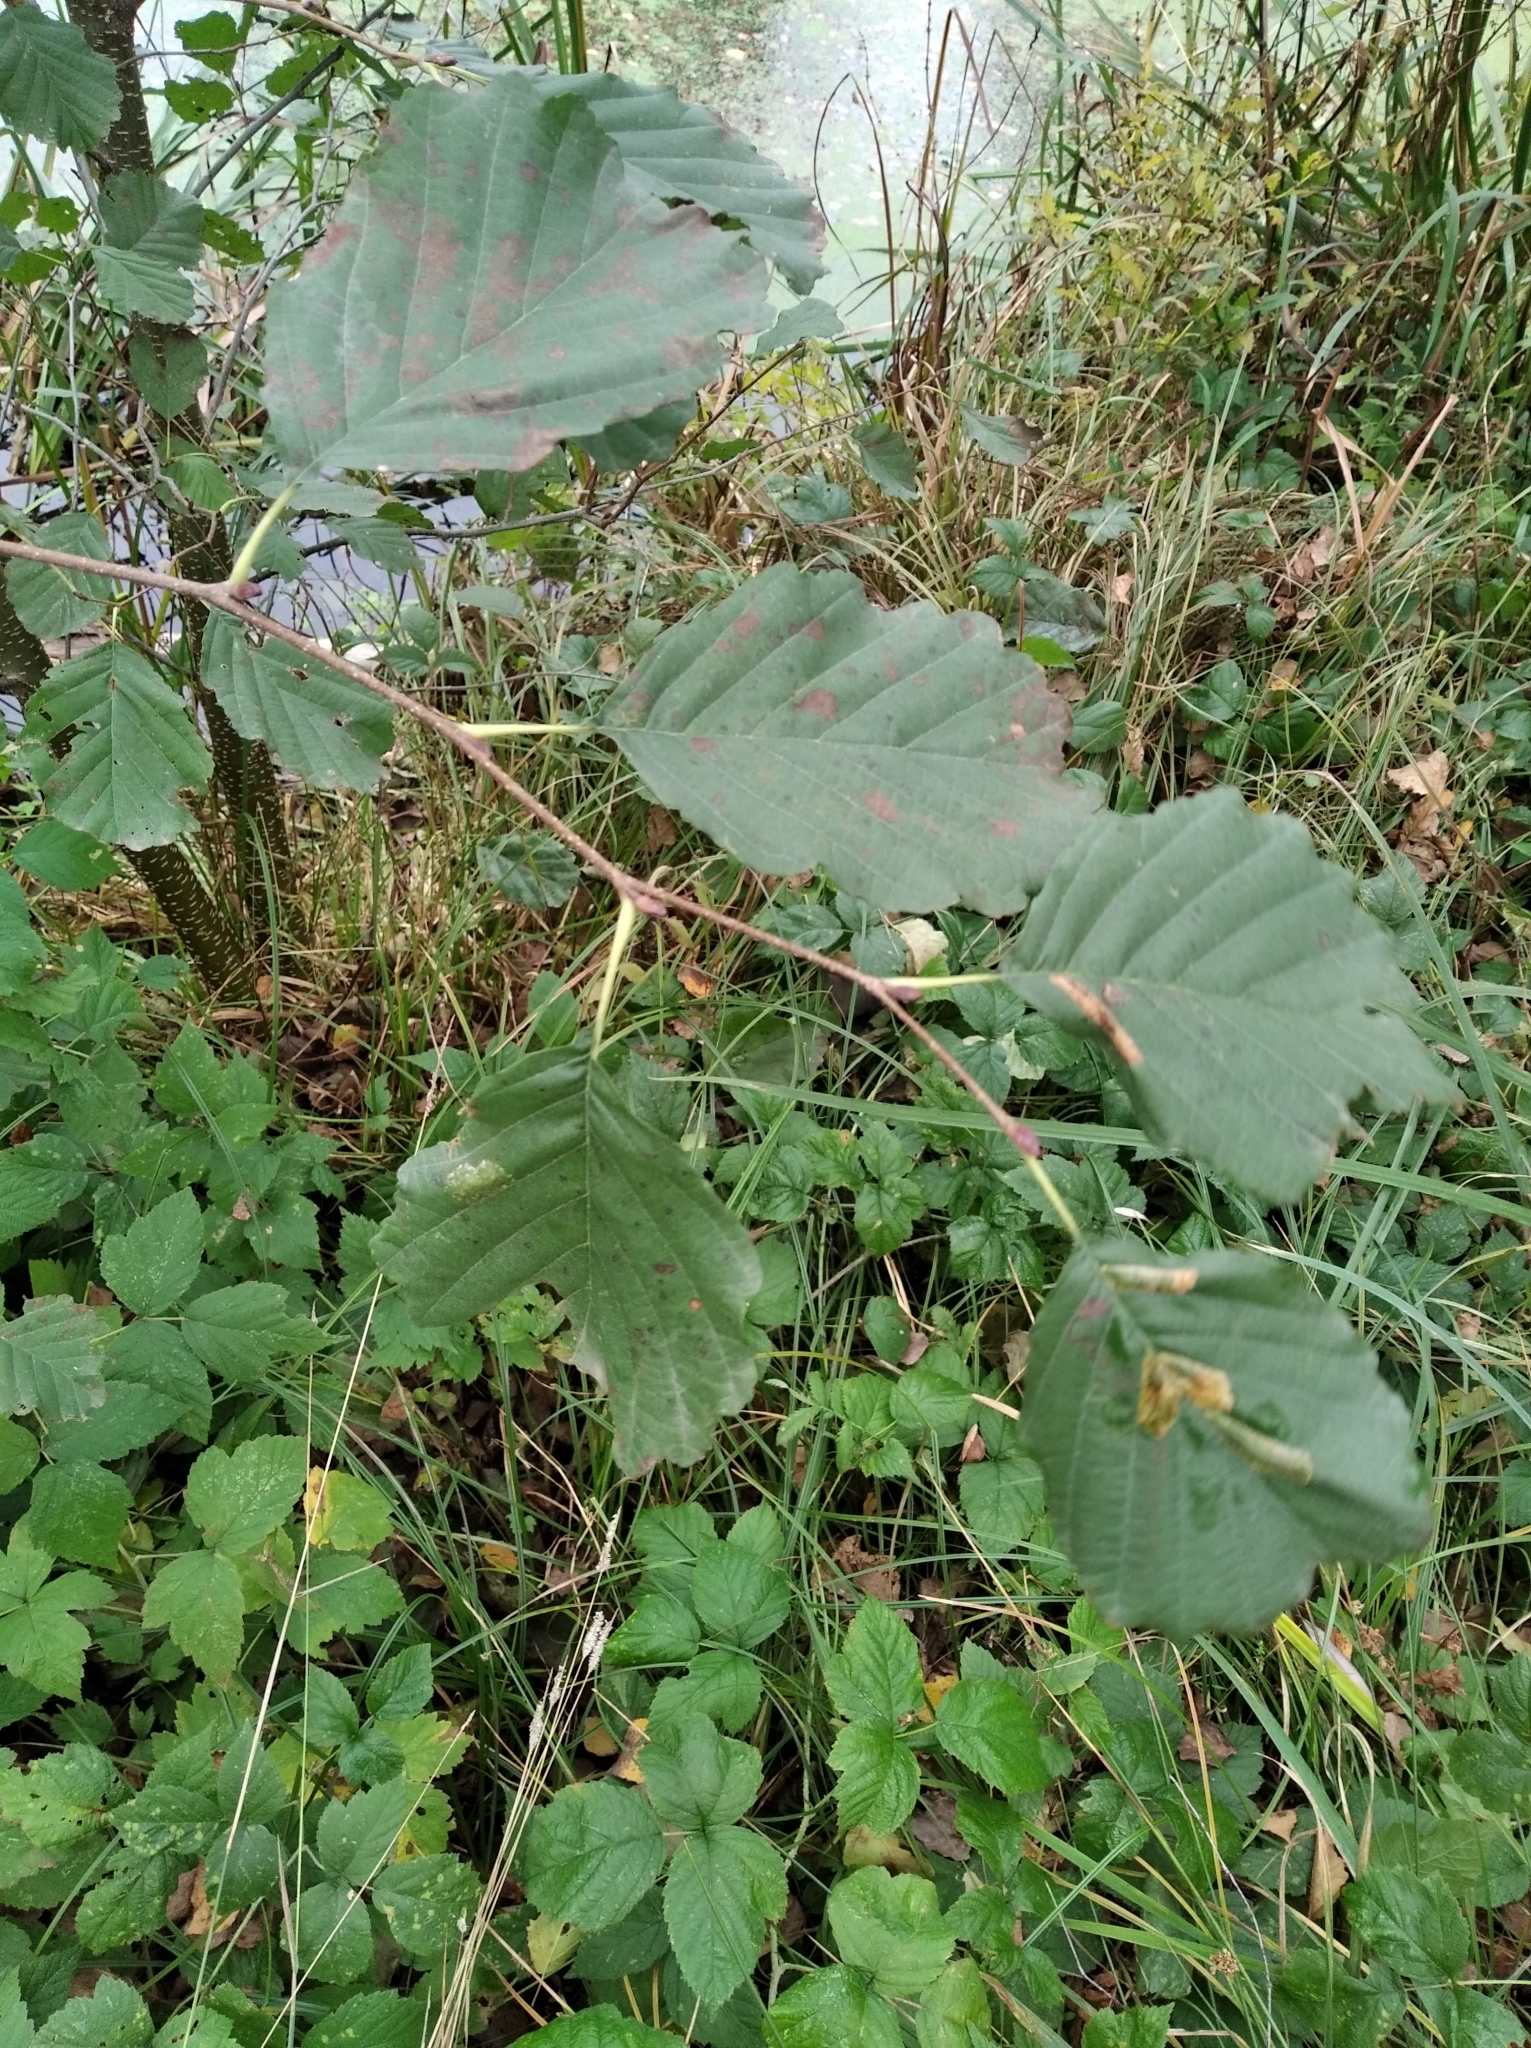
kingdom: Plantae
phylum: Tracheophyta
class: Magnoliopsida
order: Fagales
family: Betulaceae
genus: Alnus
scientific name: Alnus glutinosa
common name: Black alder
